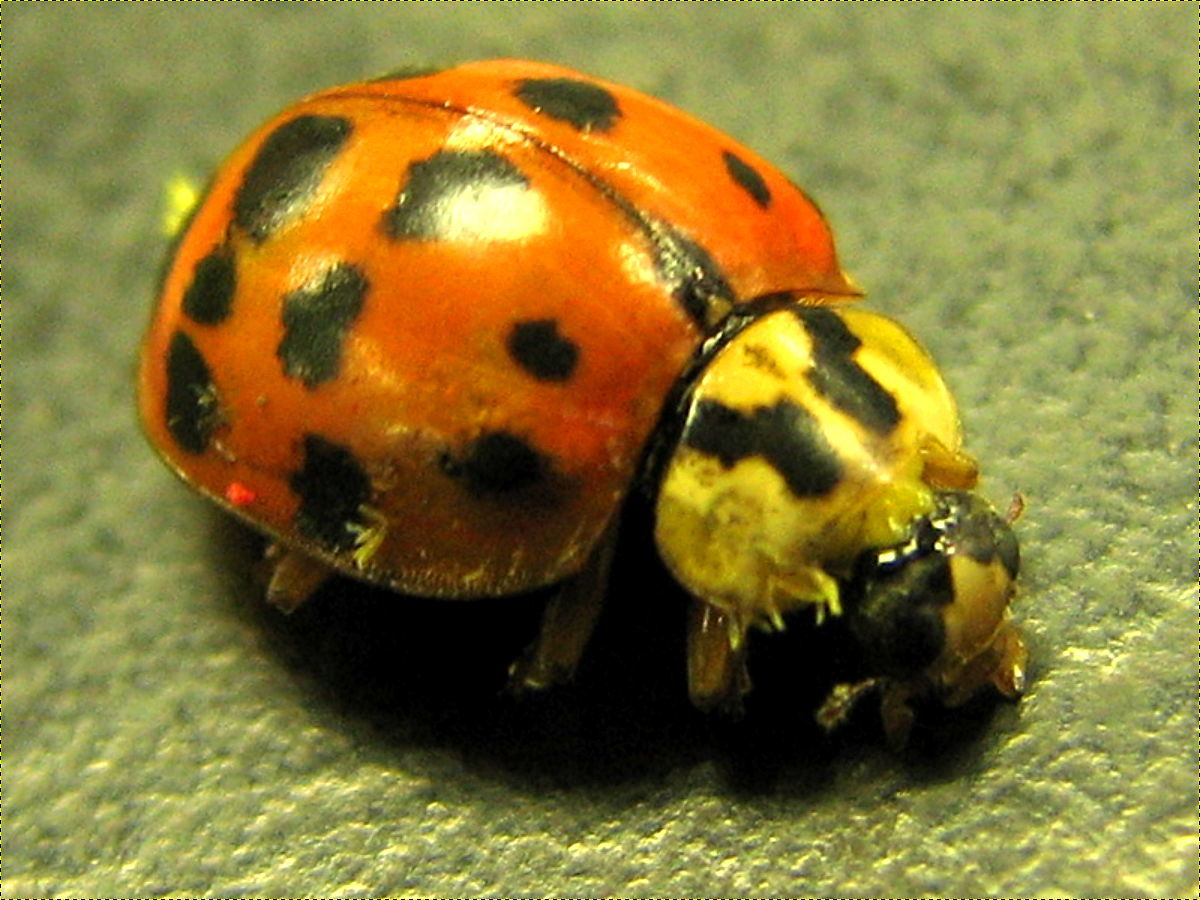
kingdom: Animalia
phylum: Arthropoda
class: Insecta
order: Coleoptera
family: Coccinellidae
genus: Harmonia
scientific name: Harmonia axyridis
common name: Harlequin ladybird
